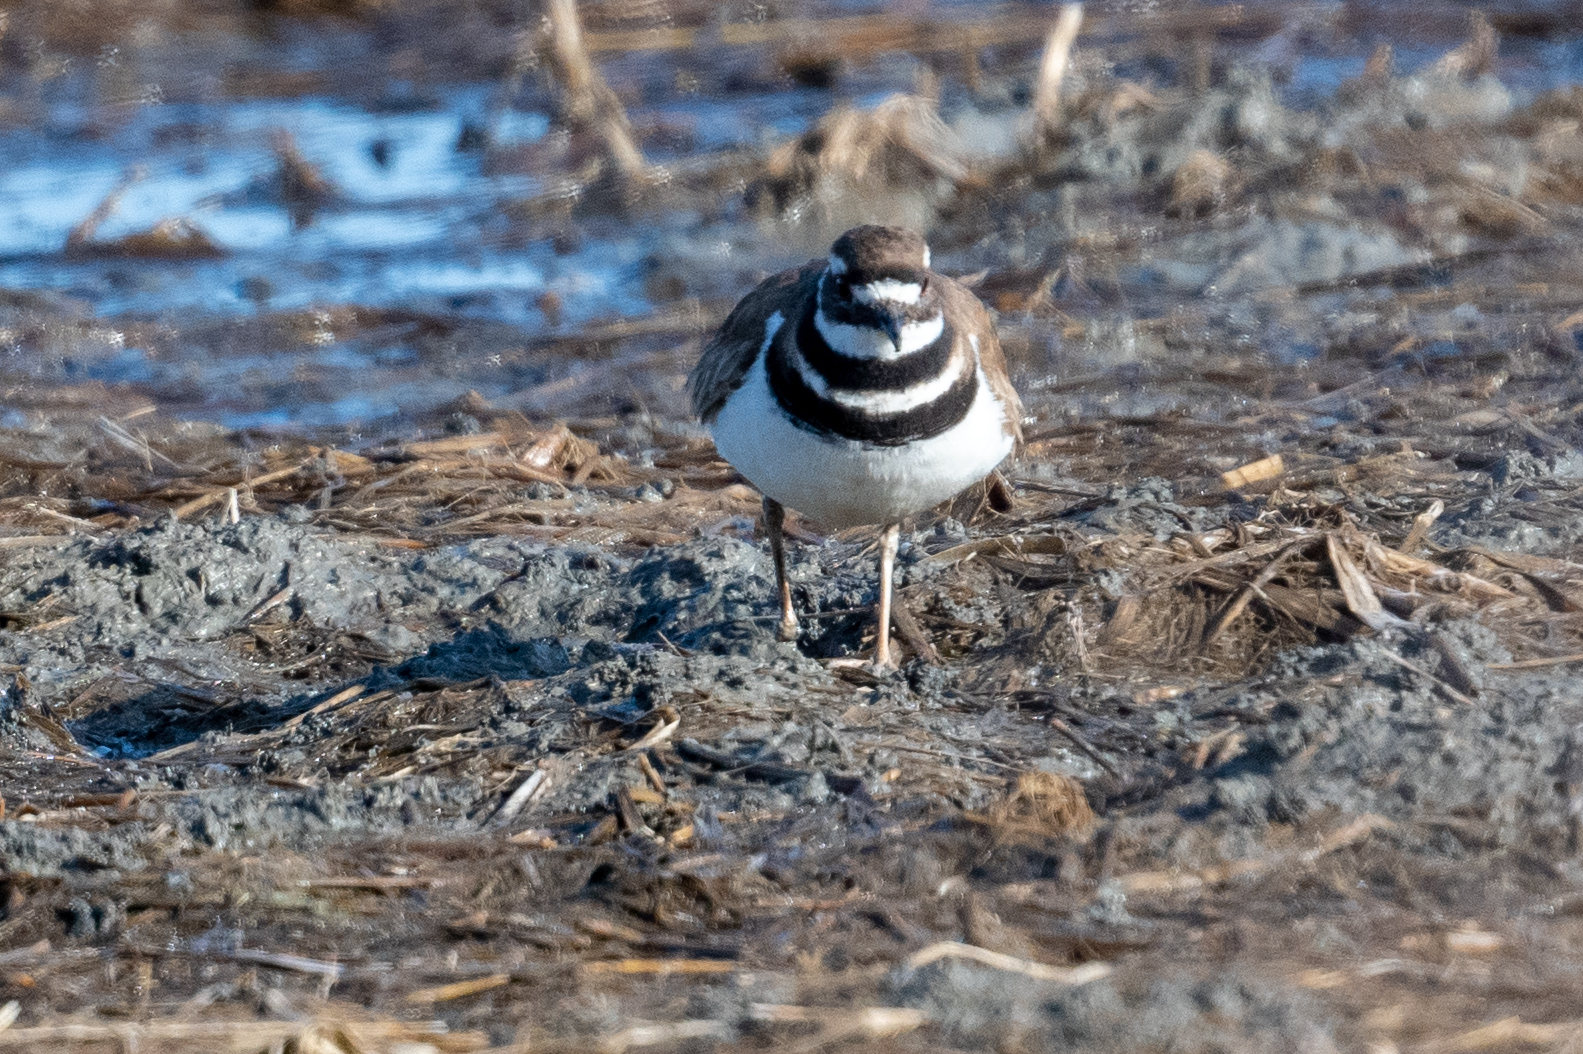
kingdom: Animalia
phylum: Chordata
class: Aves
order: Charadriiformes
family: Charadriidae
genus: Charadrius
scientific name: Charadrius vociferus
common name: Killdeer
